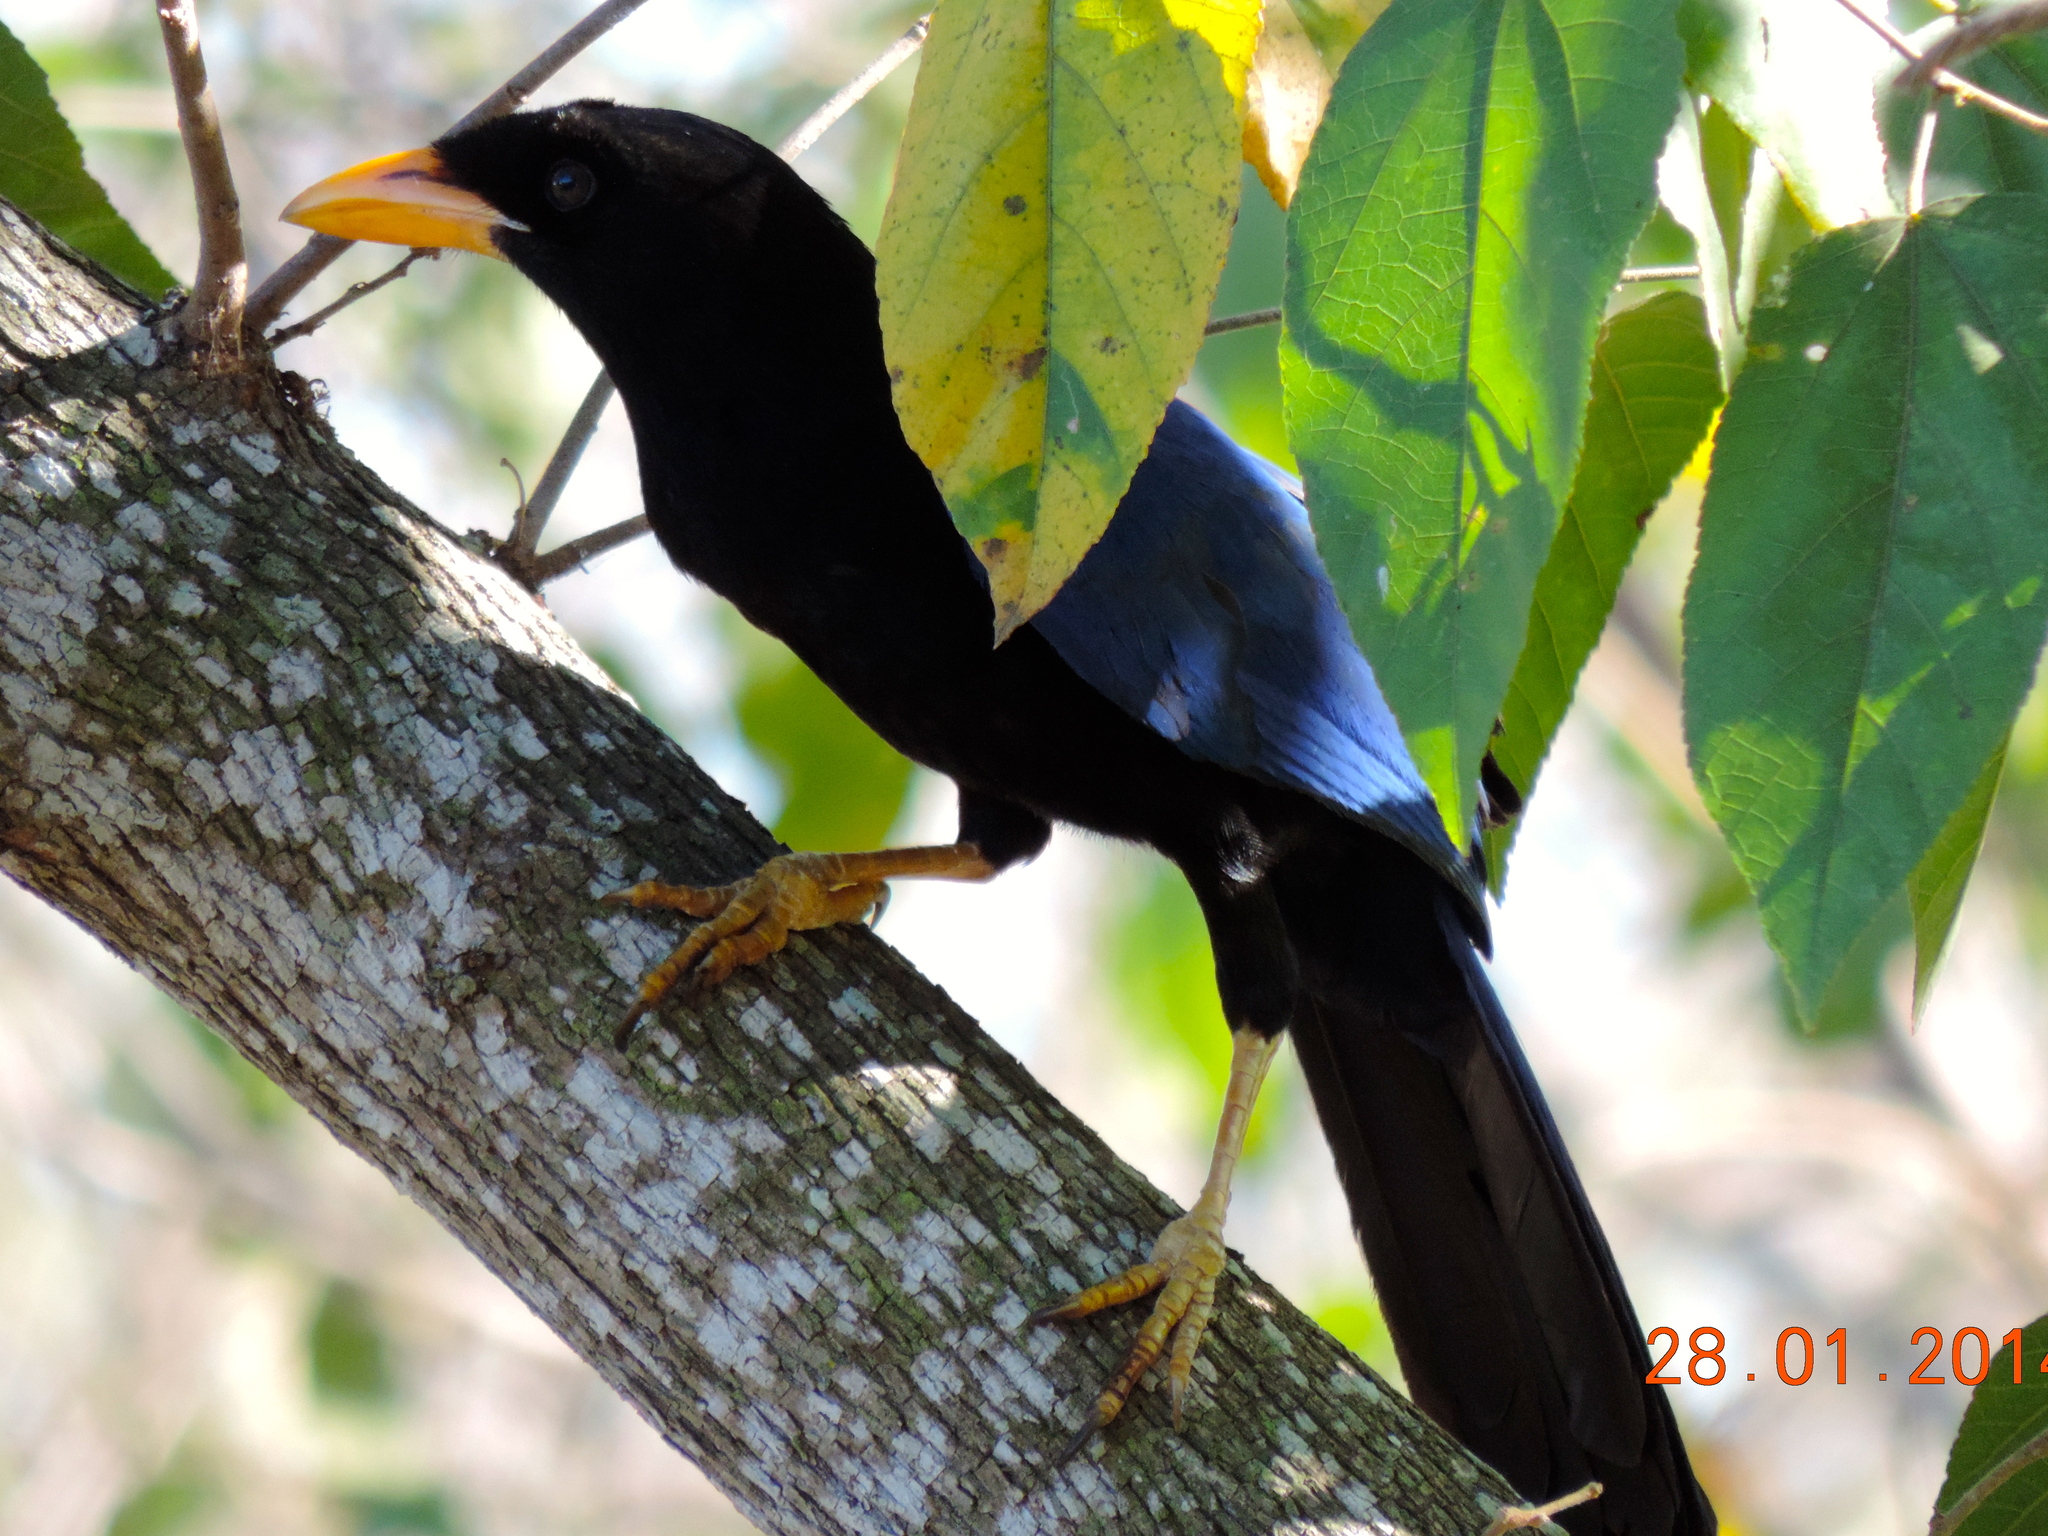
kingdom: Animalia
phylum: Chordata
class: Aves
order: Passeriformes
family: Corvidae
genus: Cyanocorax
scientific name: Cyanocorax beecheii
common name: Purplish-backed jay
